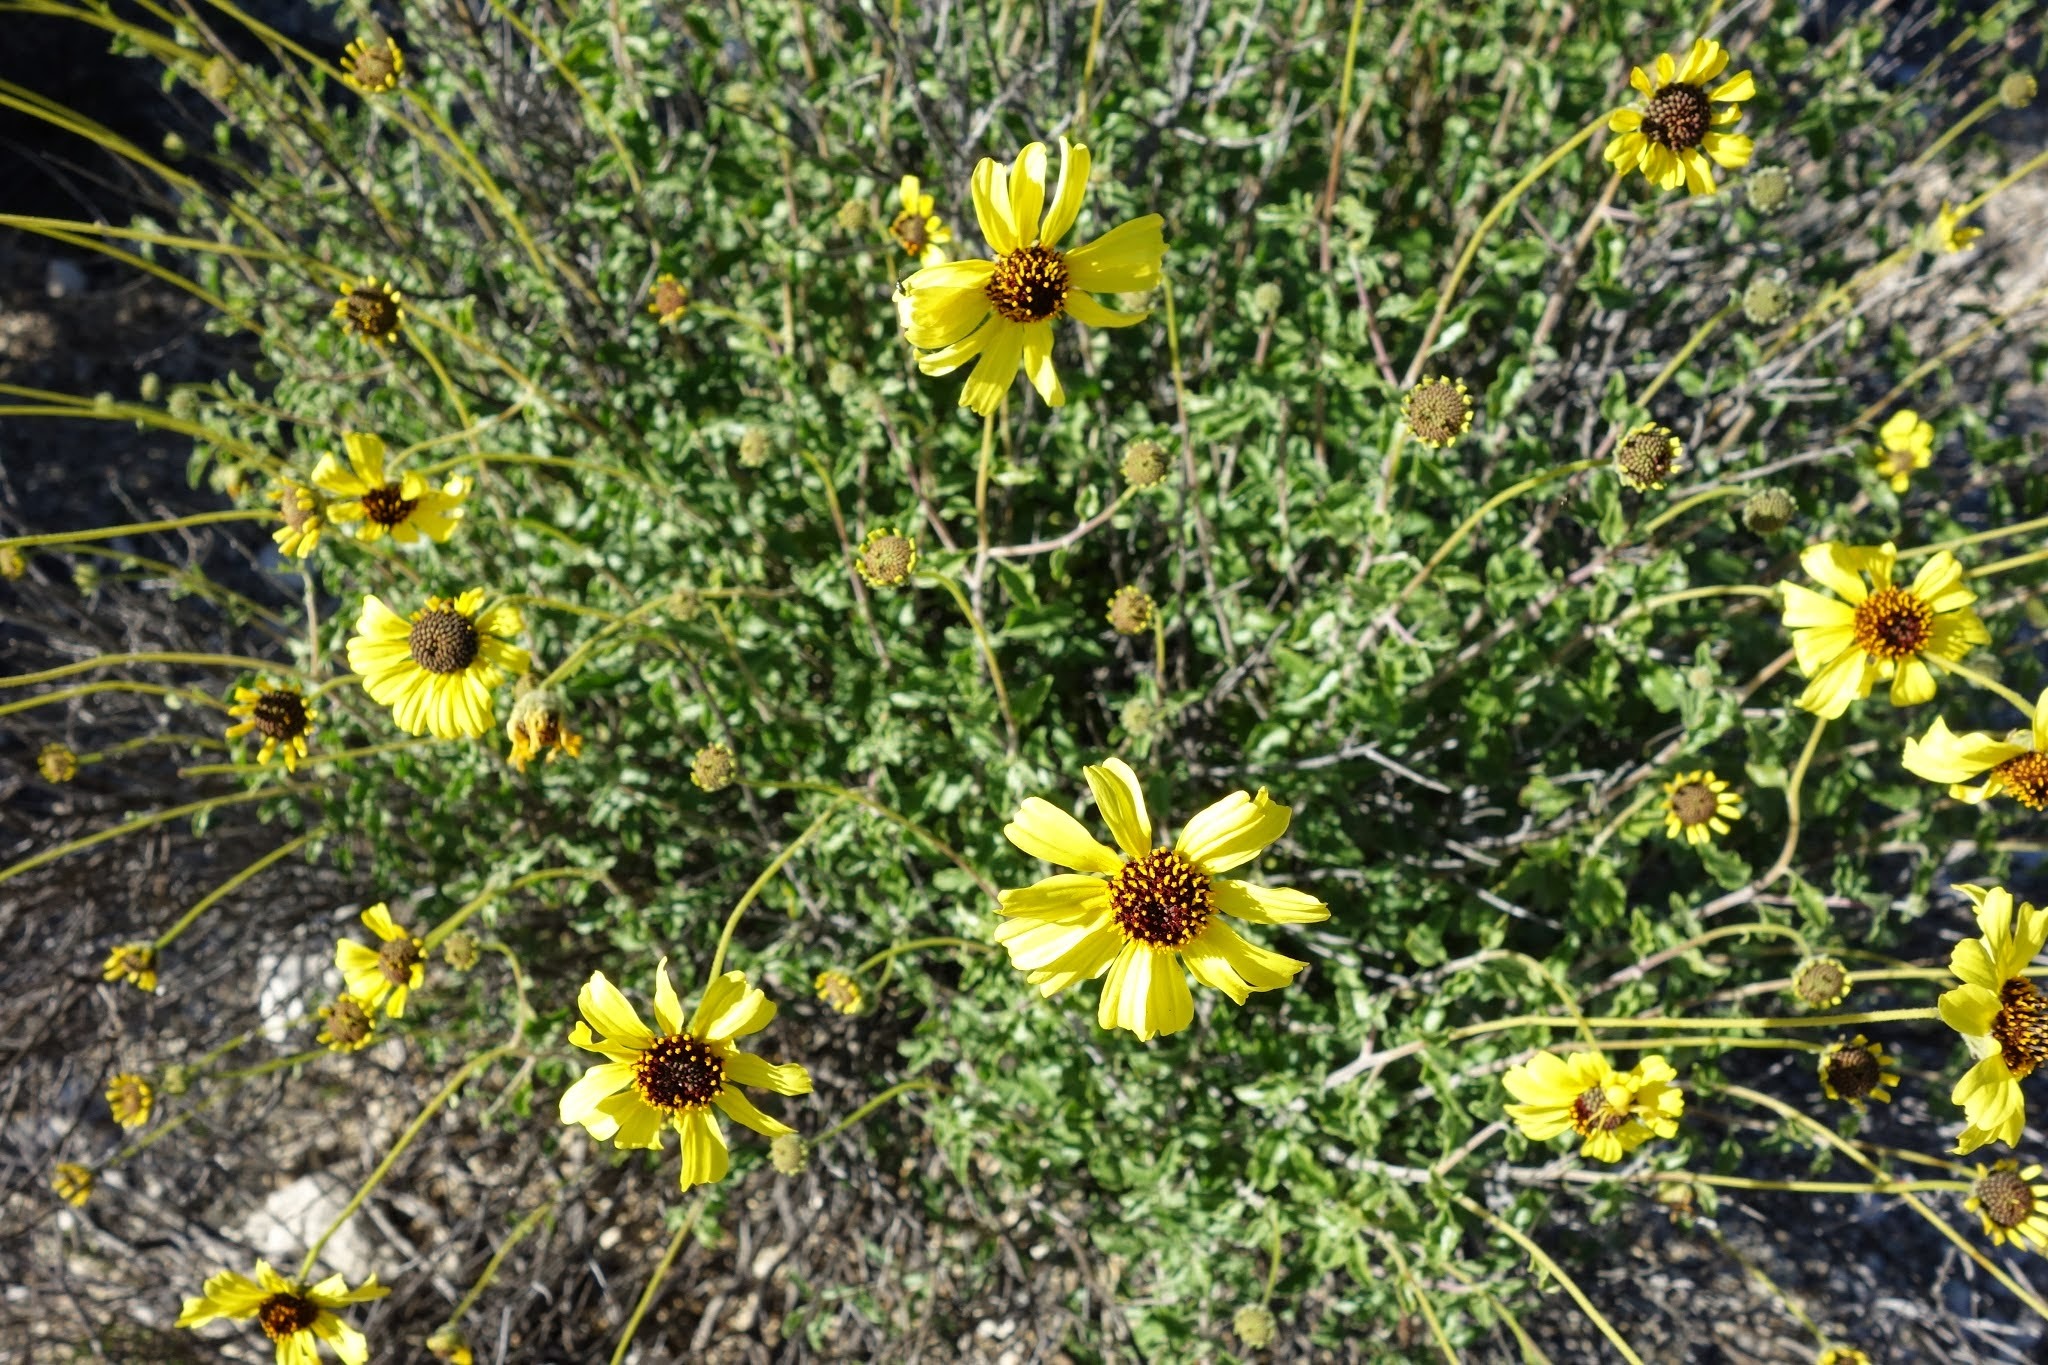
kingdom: Plantae
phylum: Tracheophyta
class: Magnoliopsida
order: Asterales
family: Asteraceae
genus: Encelia
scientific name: Encelia californica
